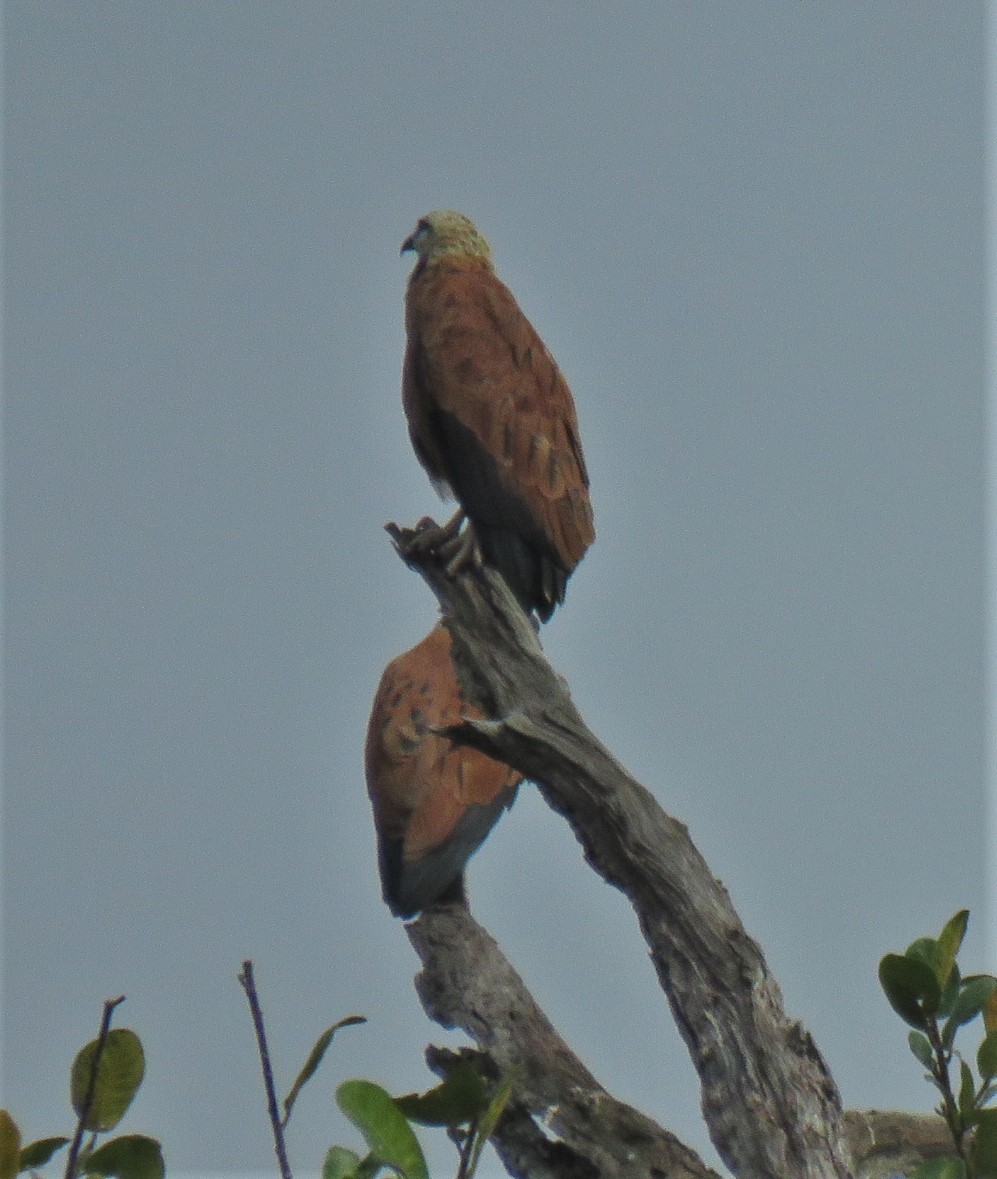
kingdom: Animalia
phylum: Chordata
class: Aves
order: Accipitriformes
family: Accipitridae
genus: Busarellus
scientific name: Busarellus nigricollis
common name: Black-collared hawk
